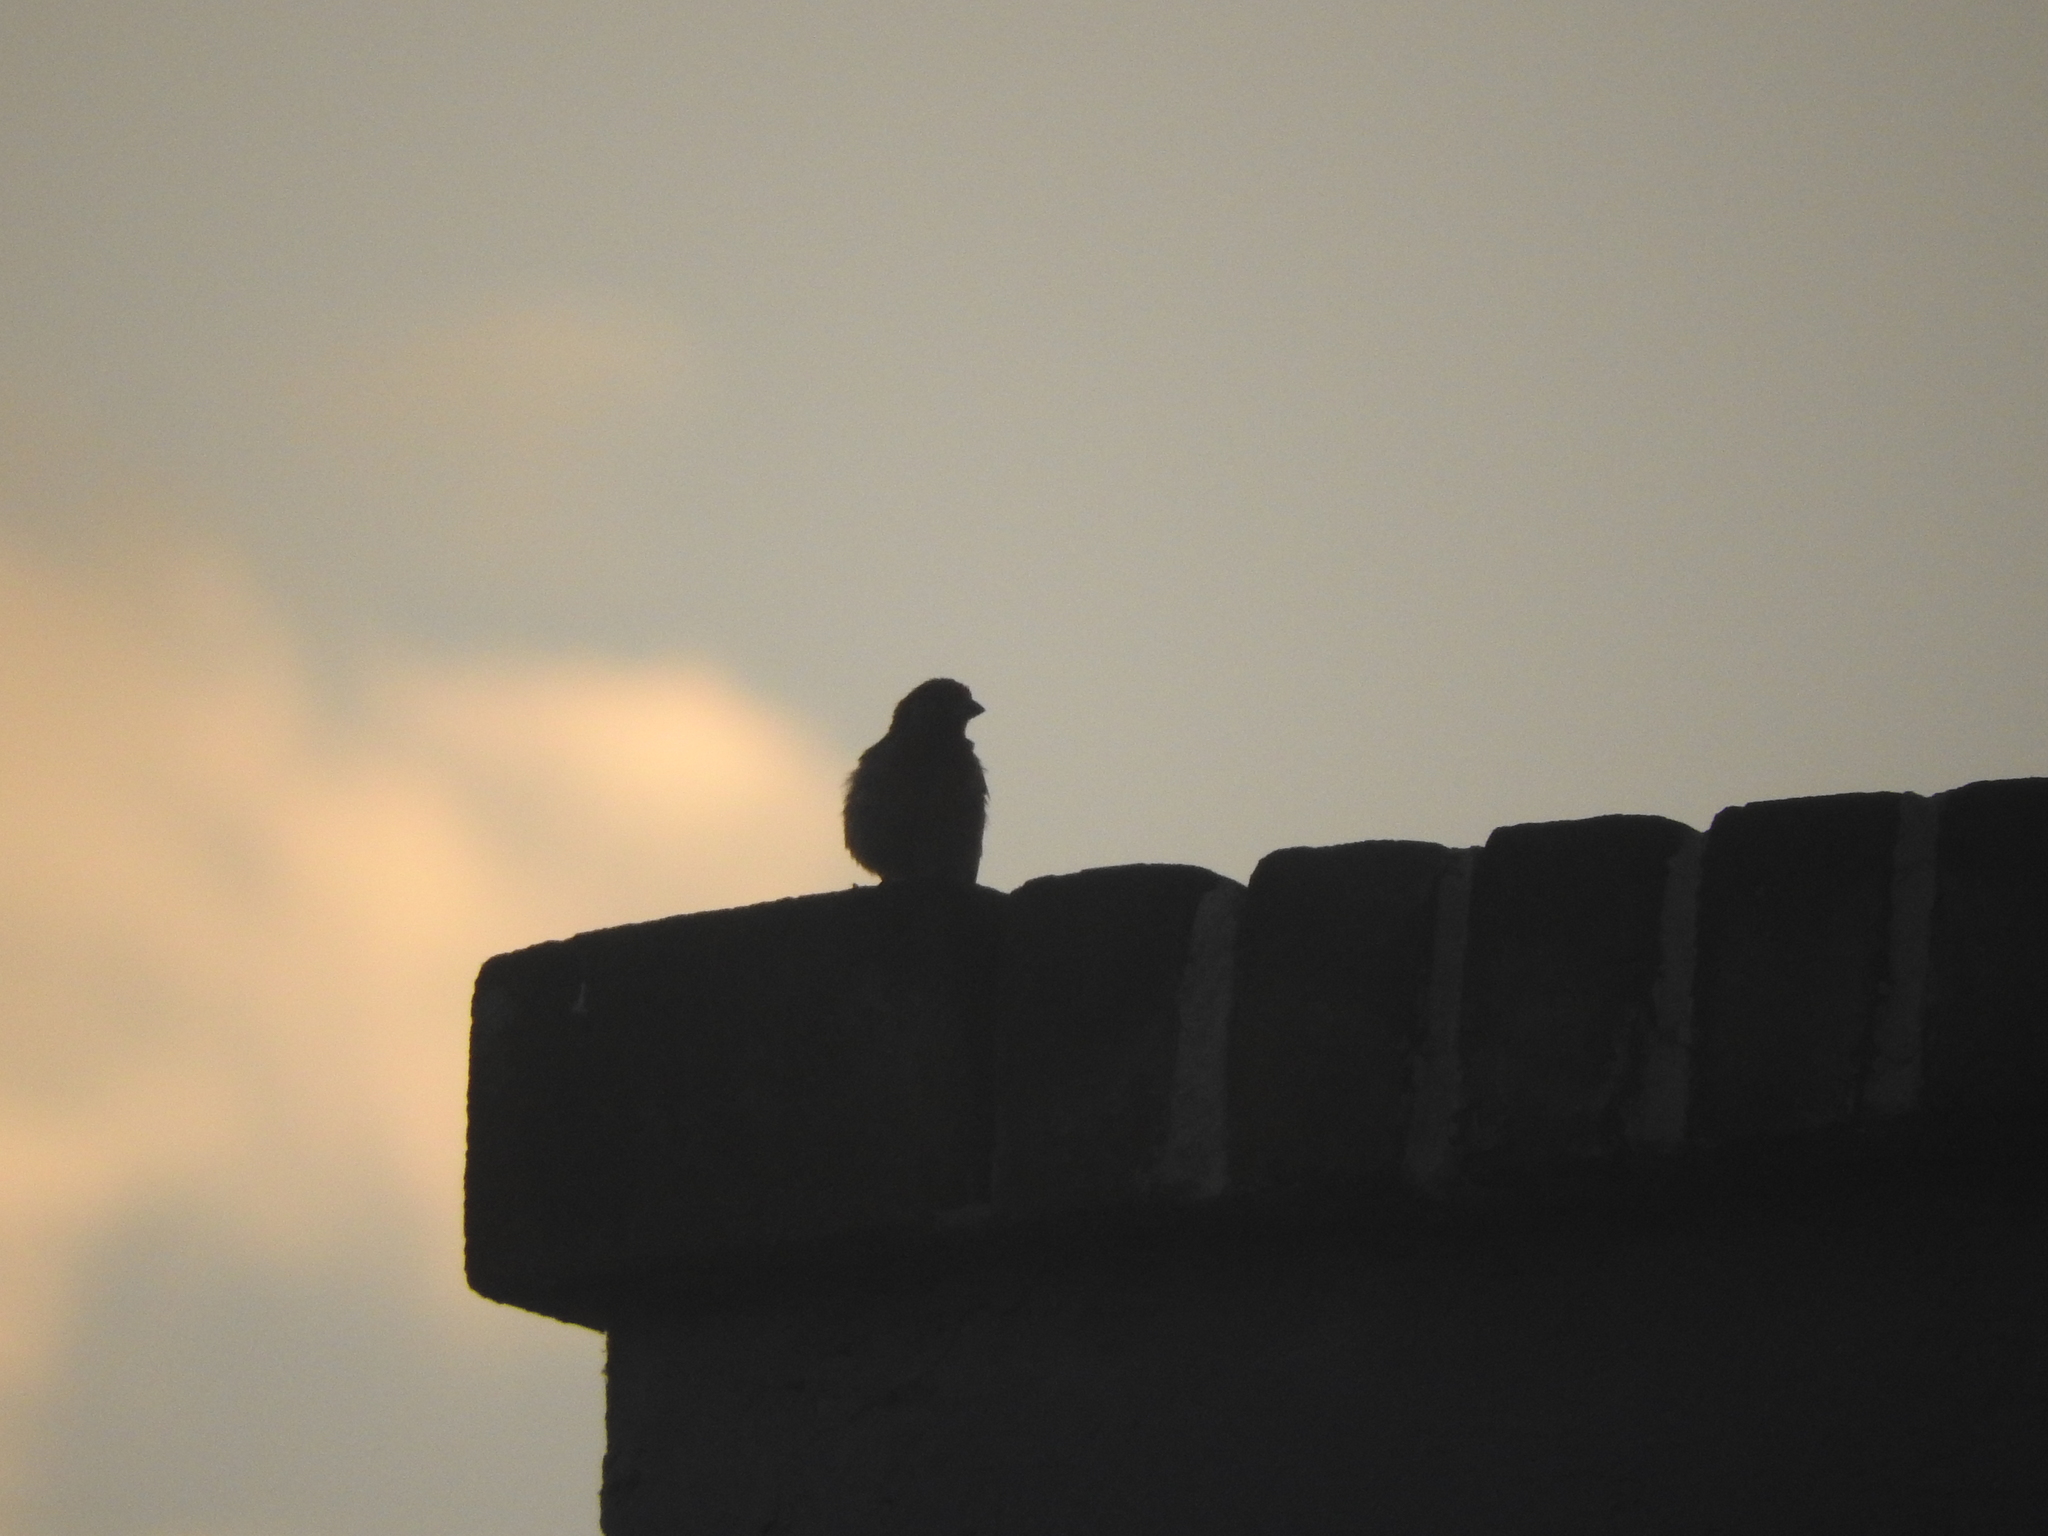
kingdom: Animalia
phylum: Chordata
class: Aves
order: Passeriformes
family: Fringillidae
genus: Haemorhous
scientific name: Haemorhous mexicanus
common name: House finch
